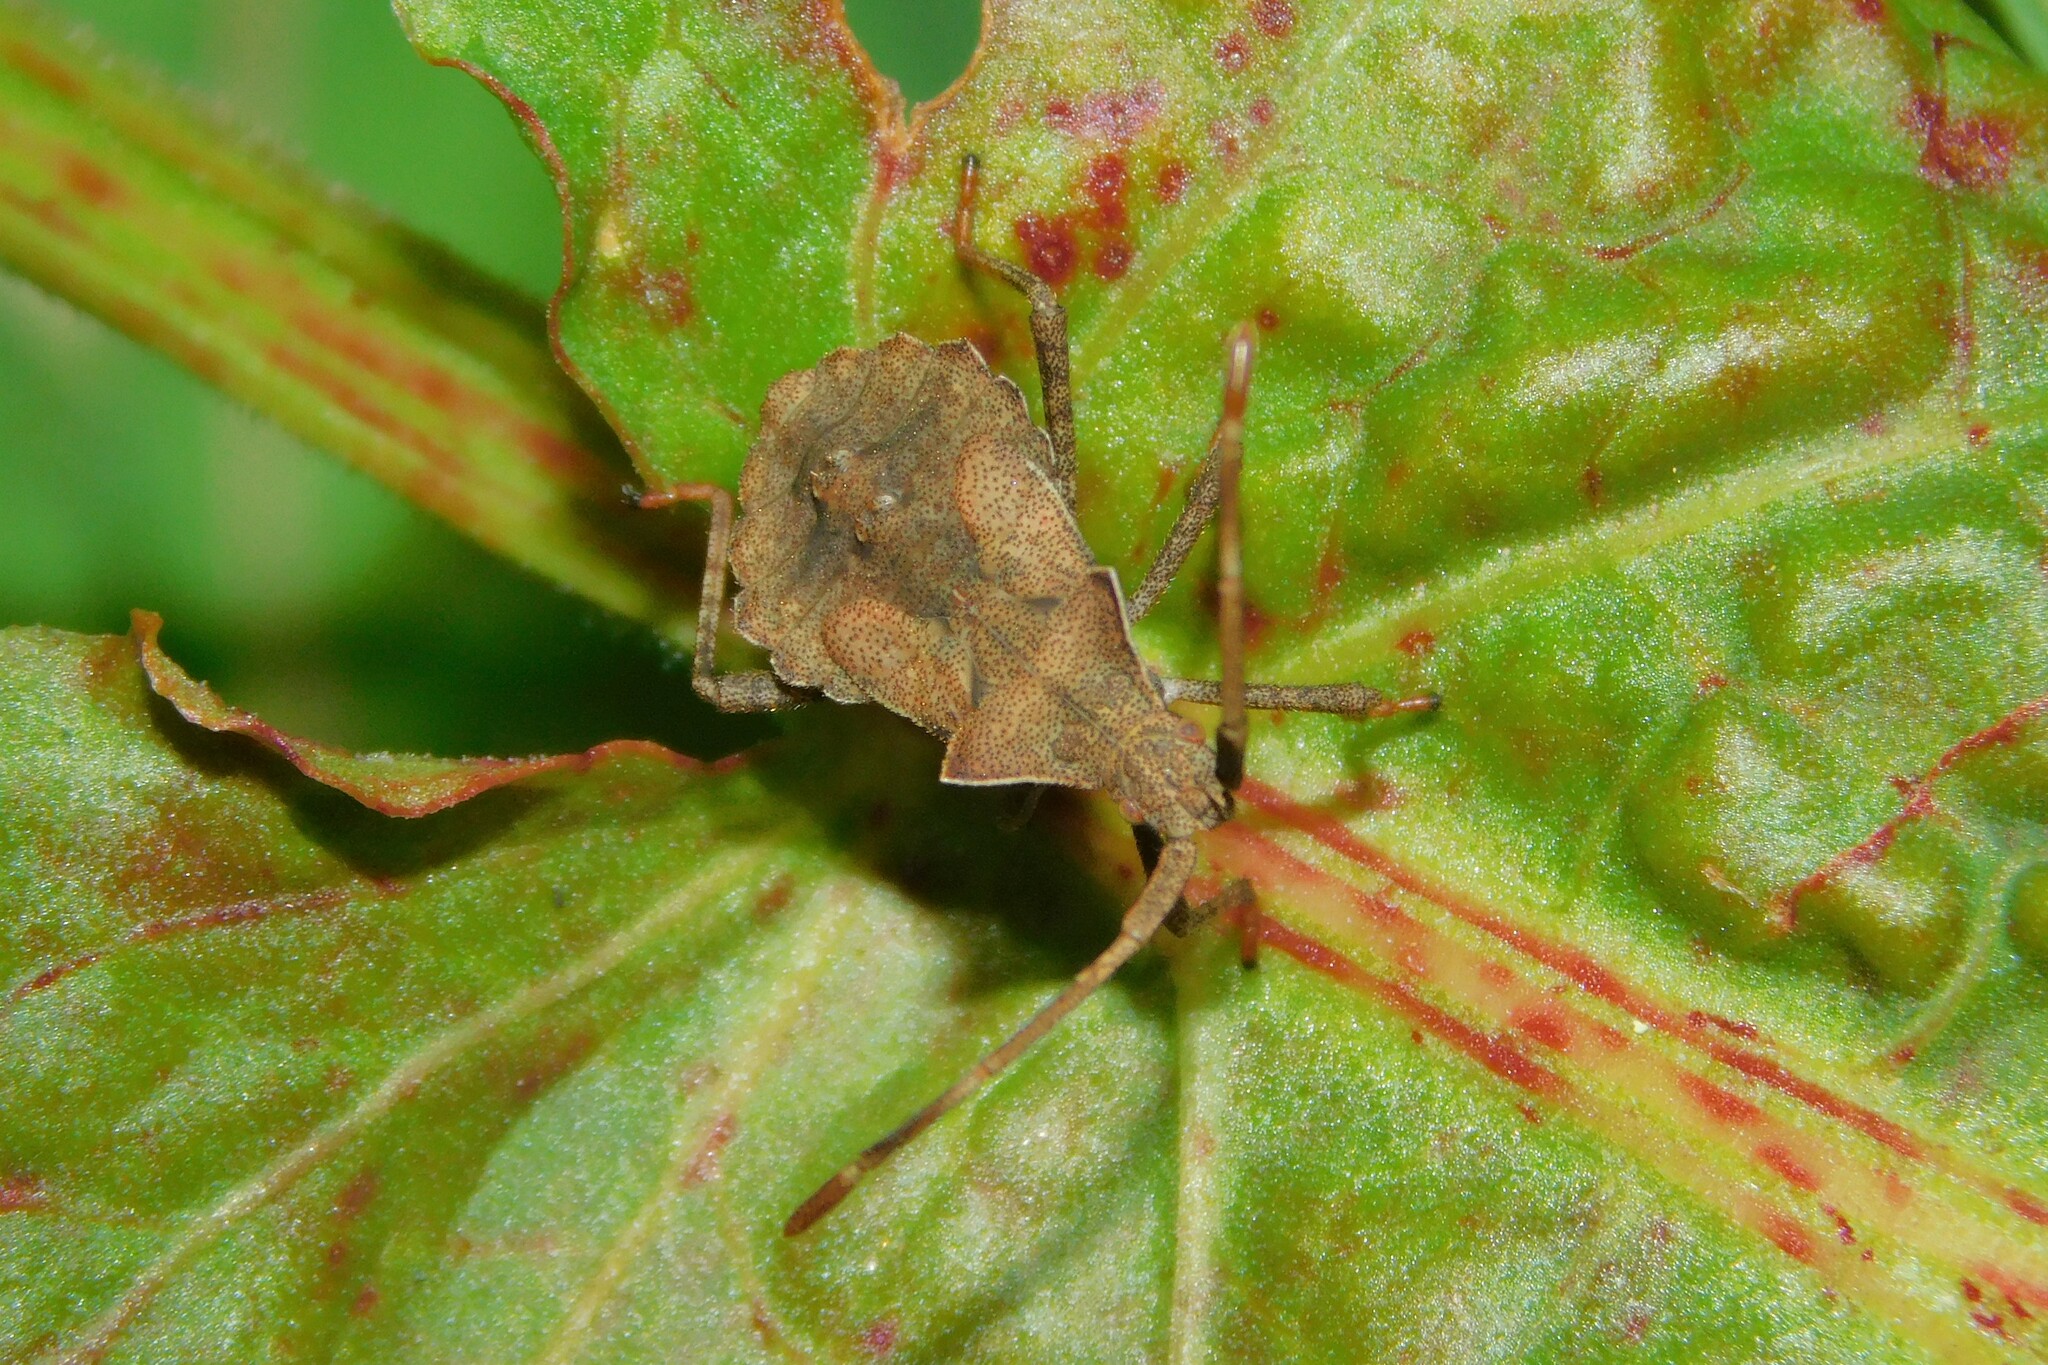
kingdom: Animalia
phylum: Arthropoda
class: Insecta
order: Hemiptera
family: Coreidae
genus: Coreus
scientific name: Coreus marginatus
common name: Dock bug
